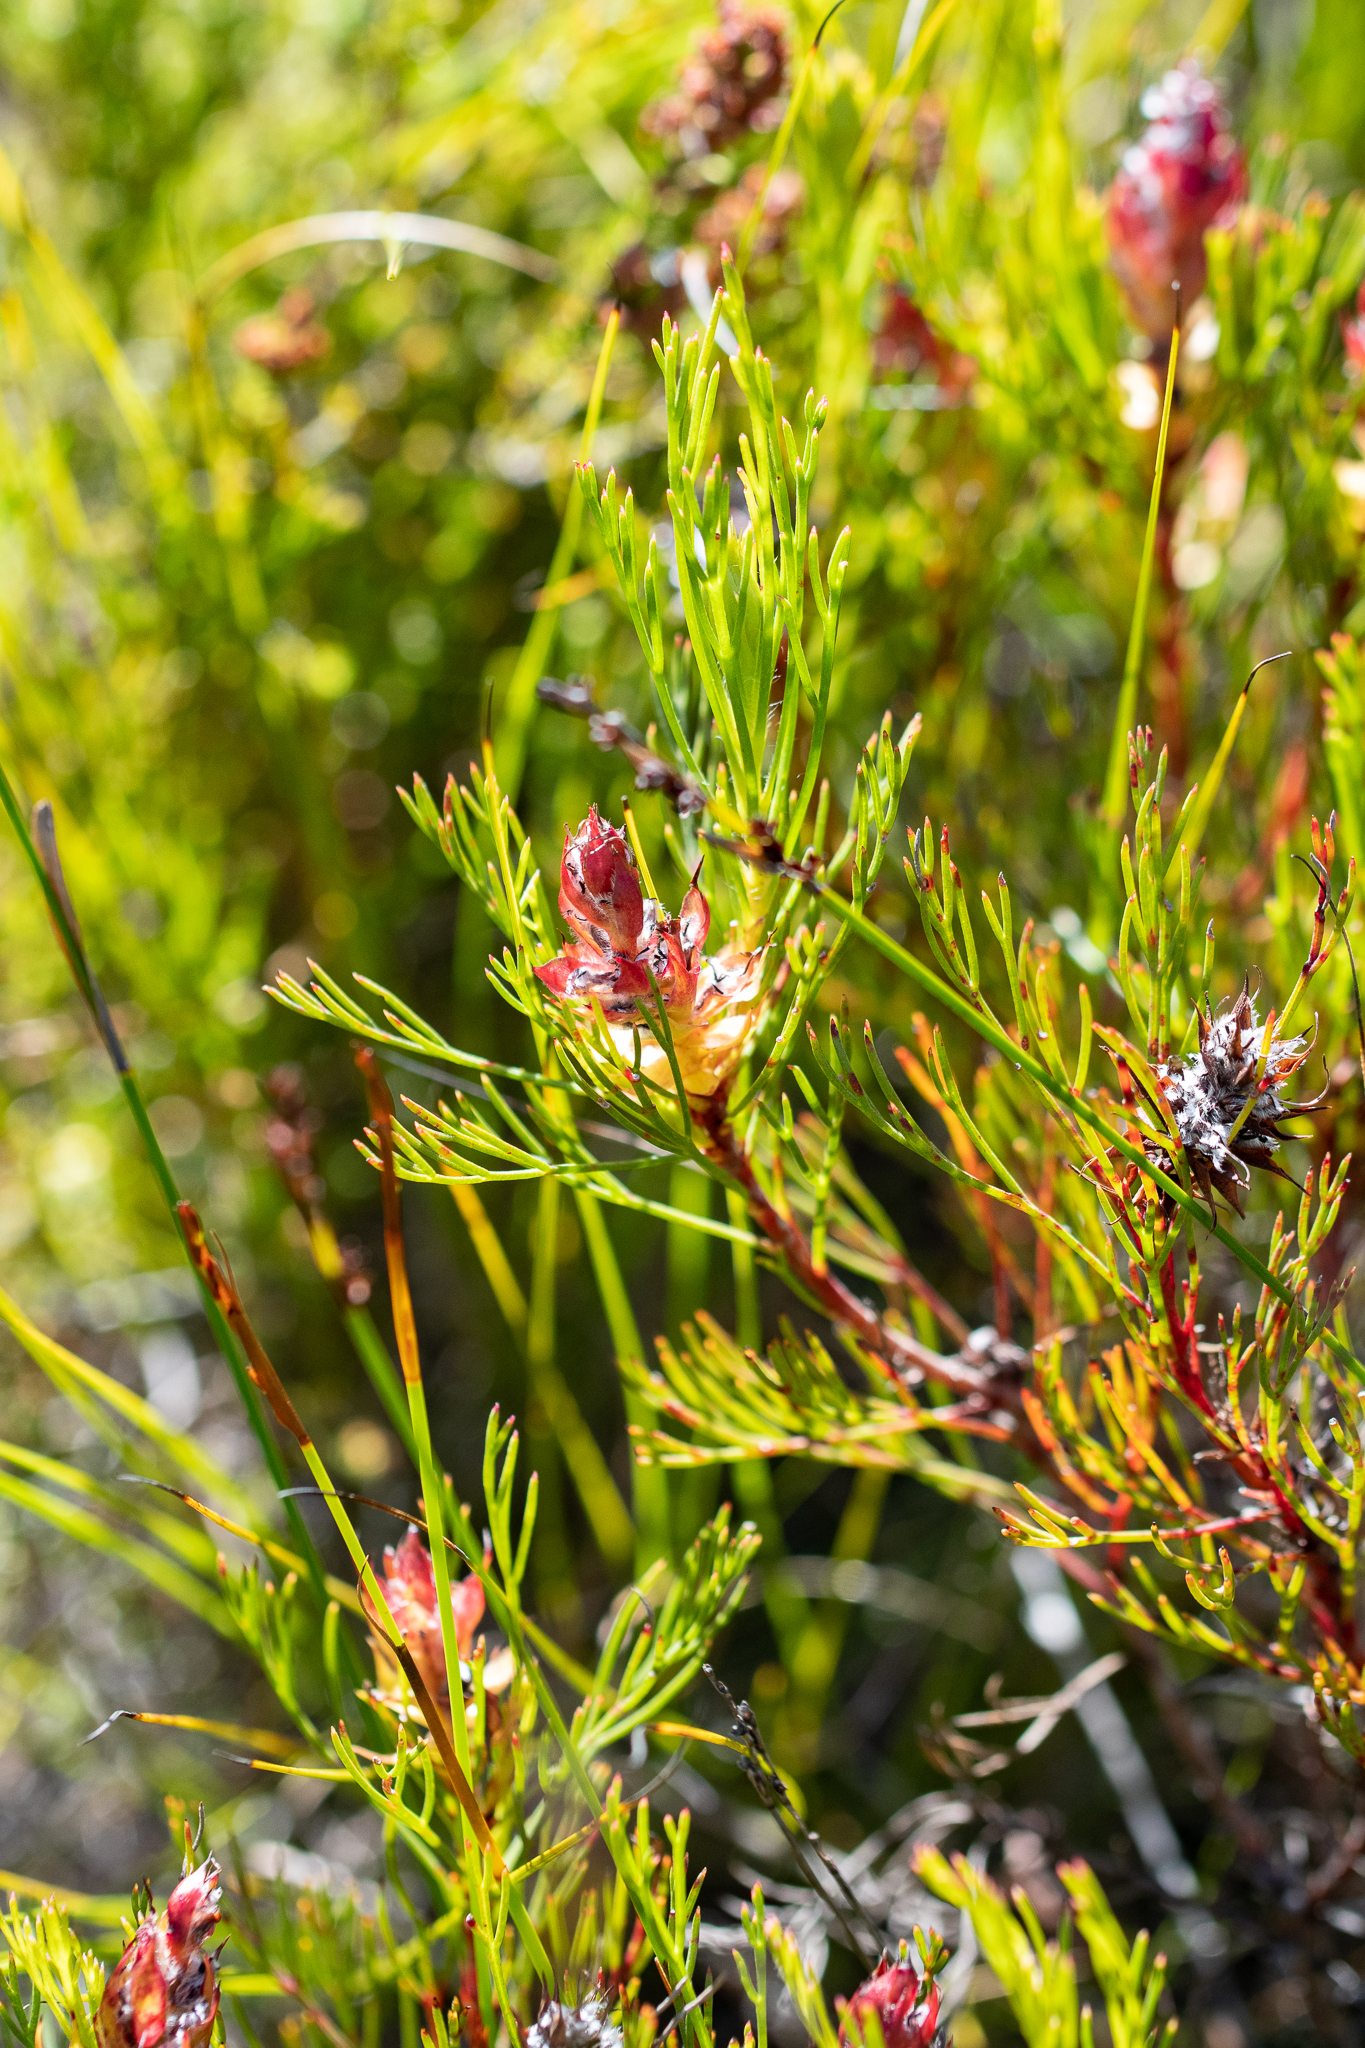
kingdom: Plantae
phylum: Tracheophyta
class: Magnoliopsida
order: Proteales
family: Proteaceae
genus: Serruria
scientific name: Serruria rostellaris
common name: Remote spiderhead
